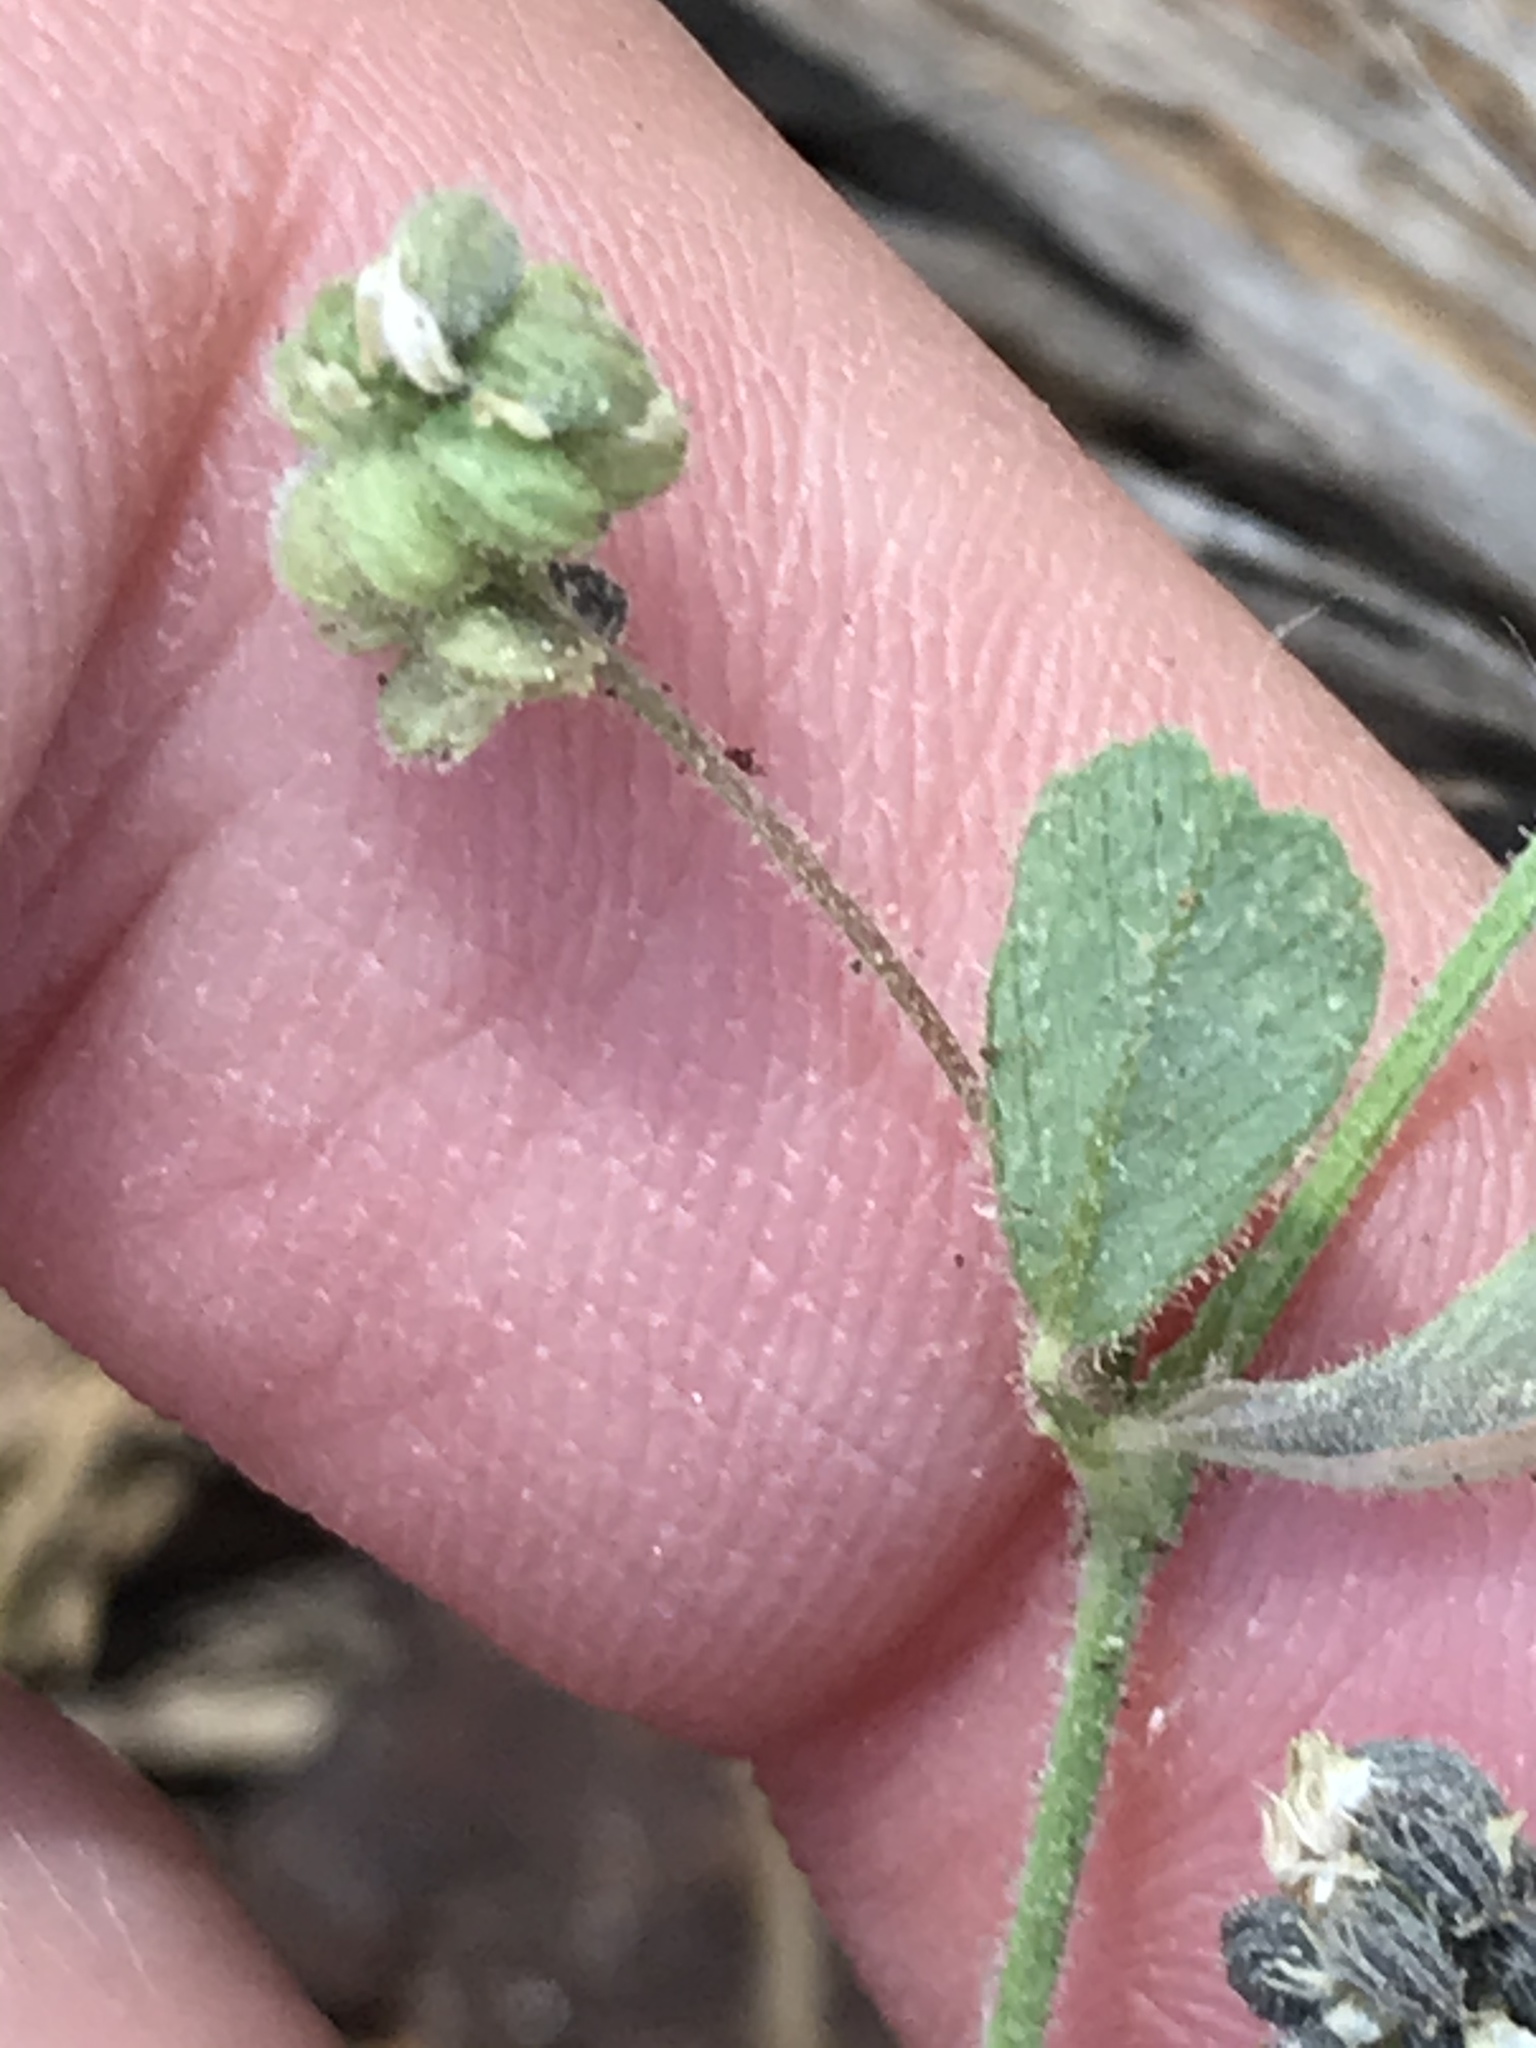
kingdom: Plantae
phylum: Tracheophyta
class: Magnoliopsida
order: Fabales
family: Fabaceae
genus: Medicago
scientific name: Medicago lupulina
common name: Black medick
